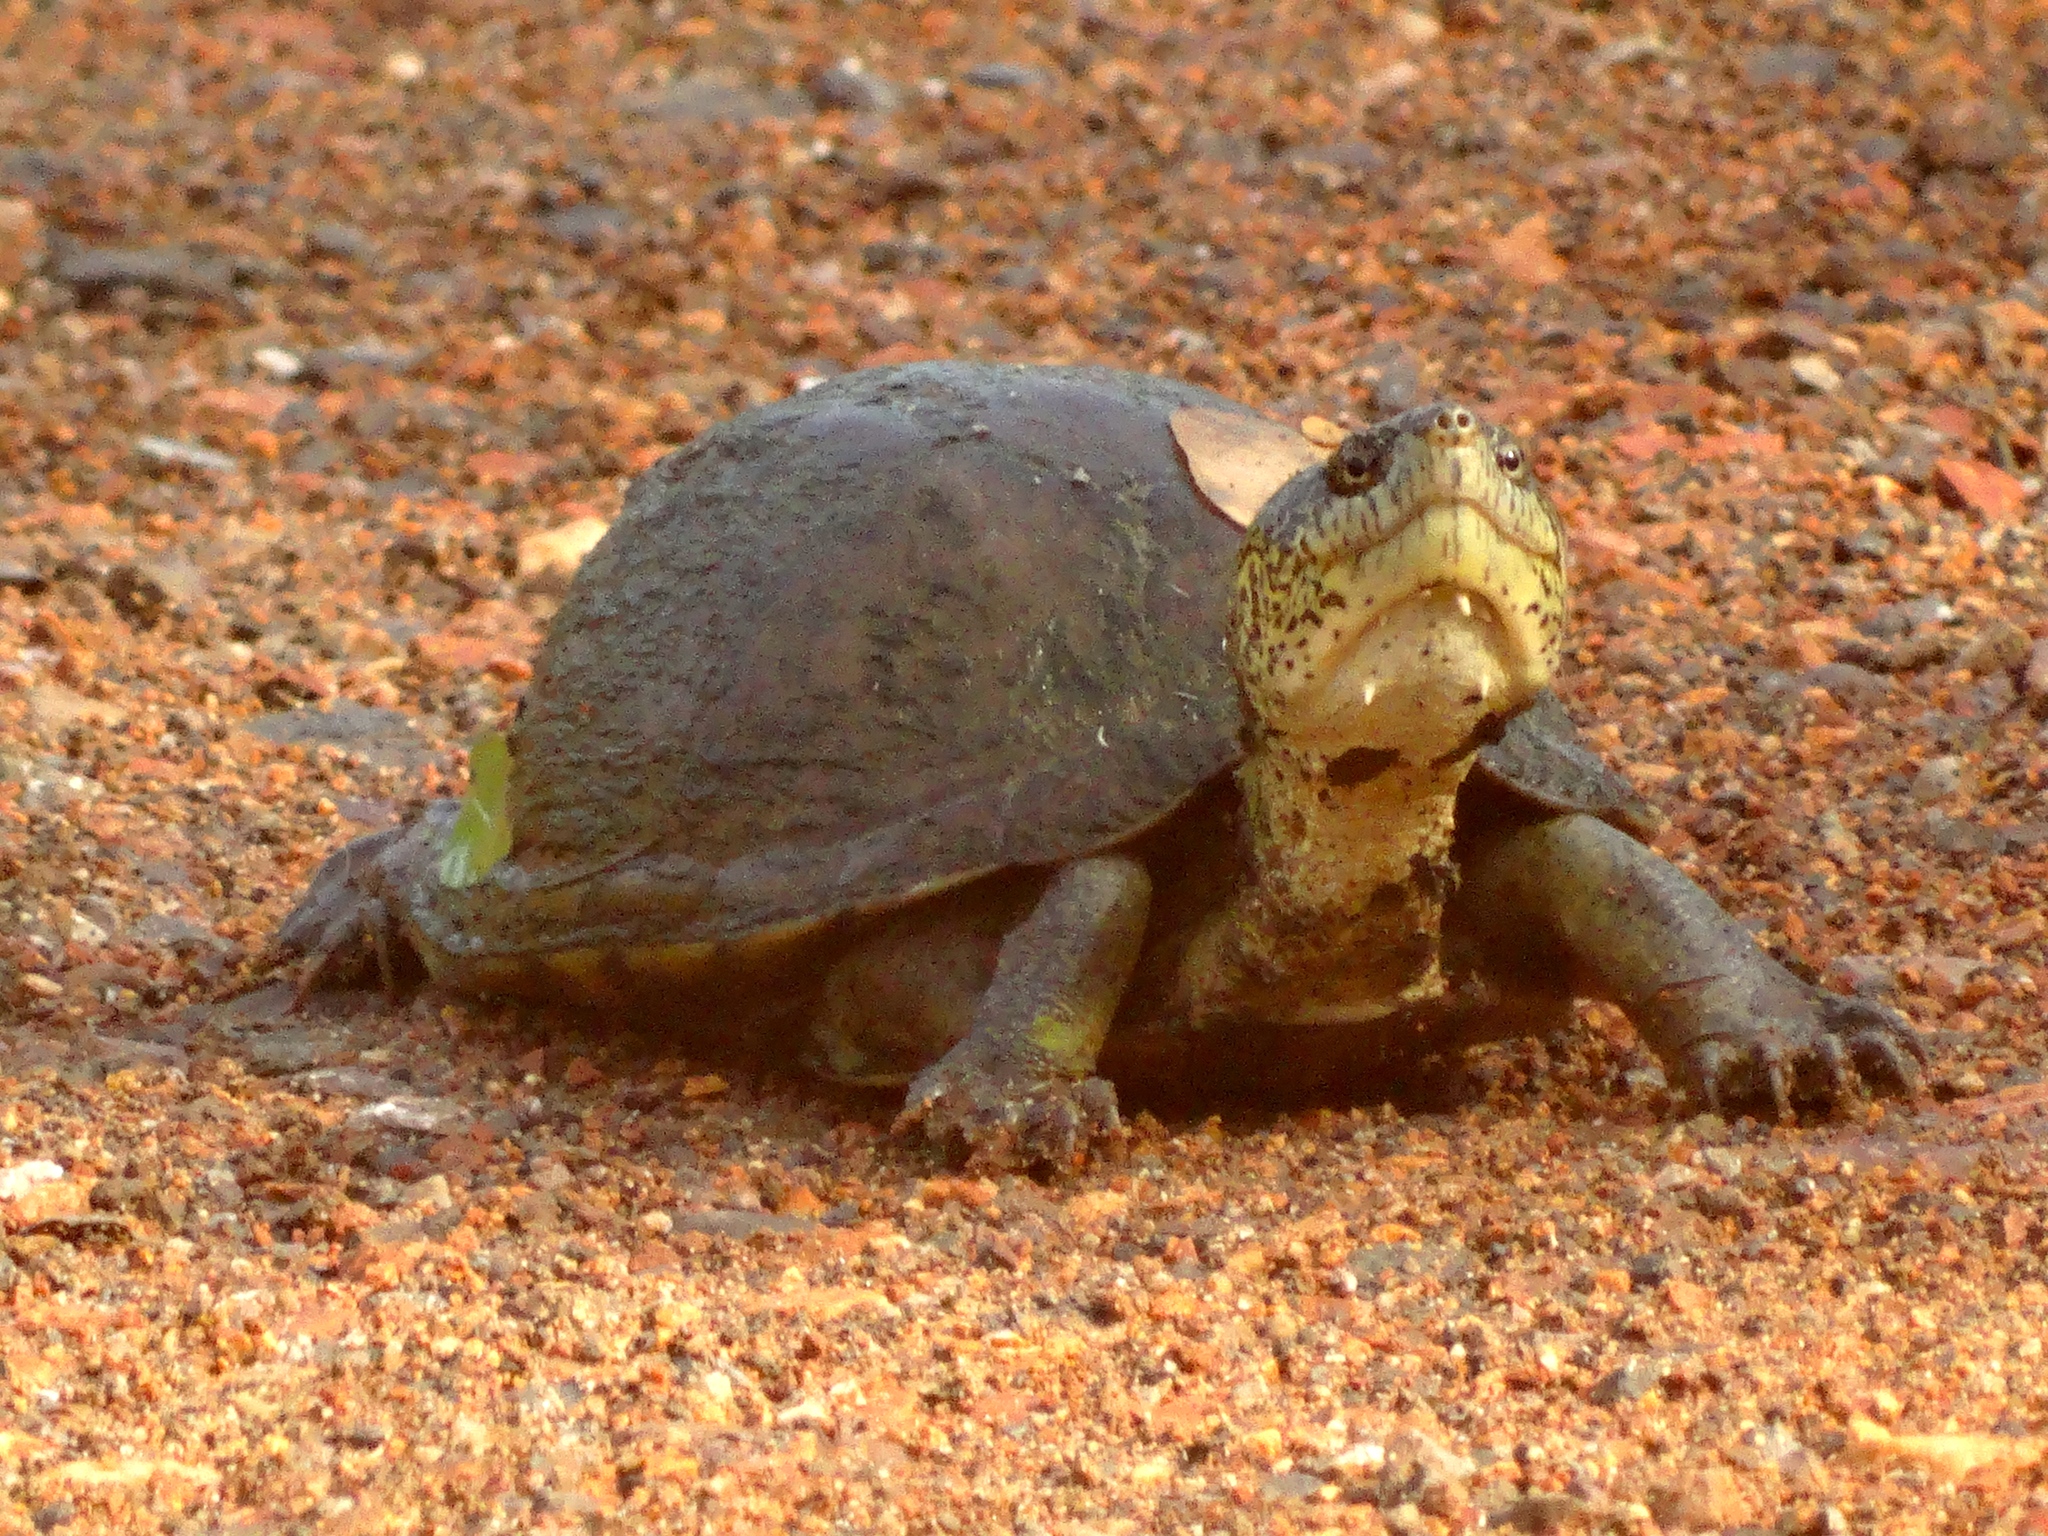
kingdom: Animalia
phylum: Chordata
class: Testudines
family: Kinosternidae
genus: Kinosternon
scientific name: Kinosternon integrum
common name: Mexican mud turtle
